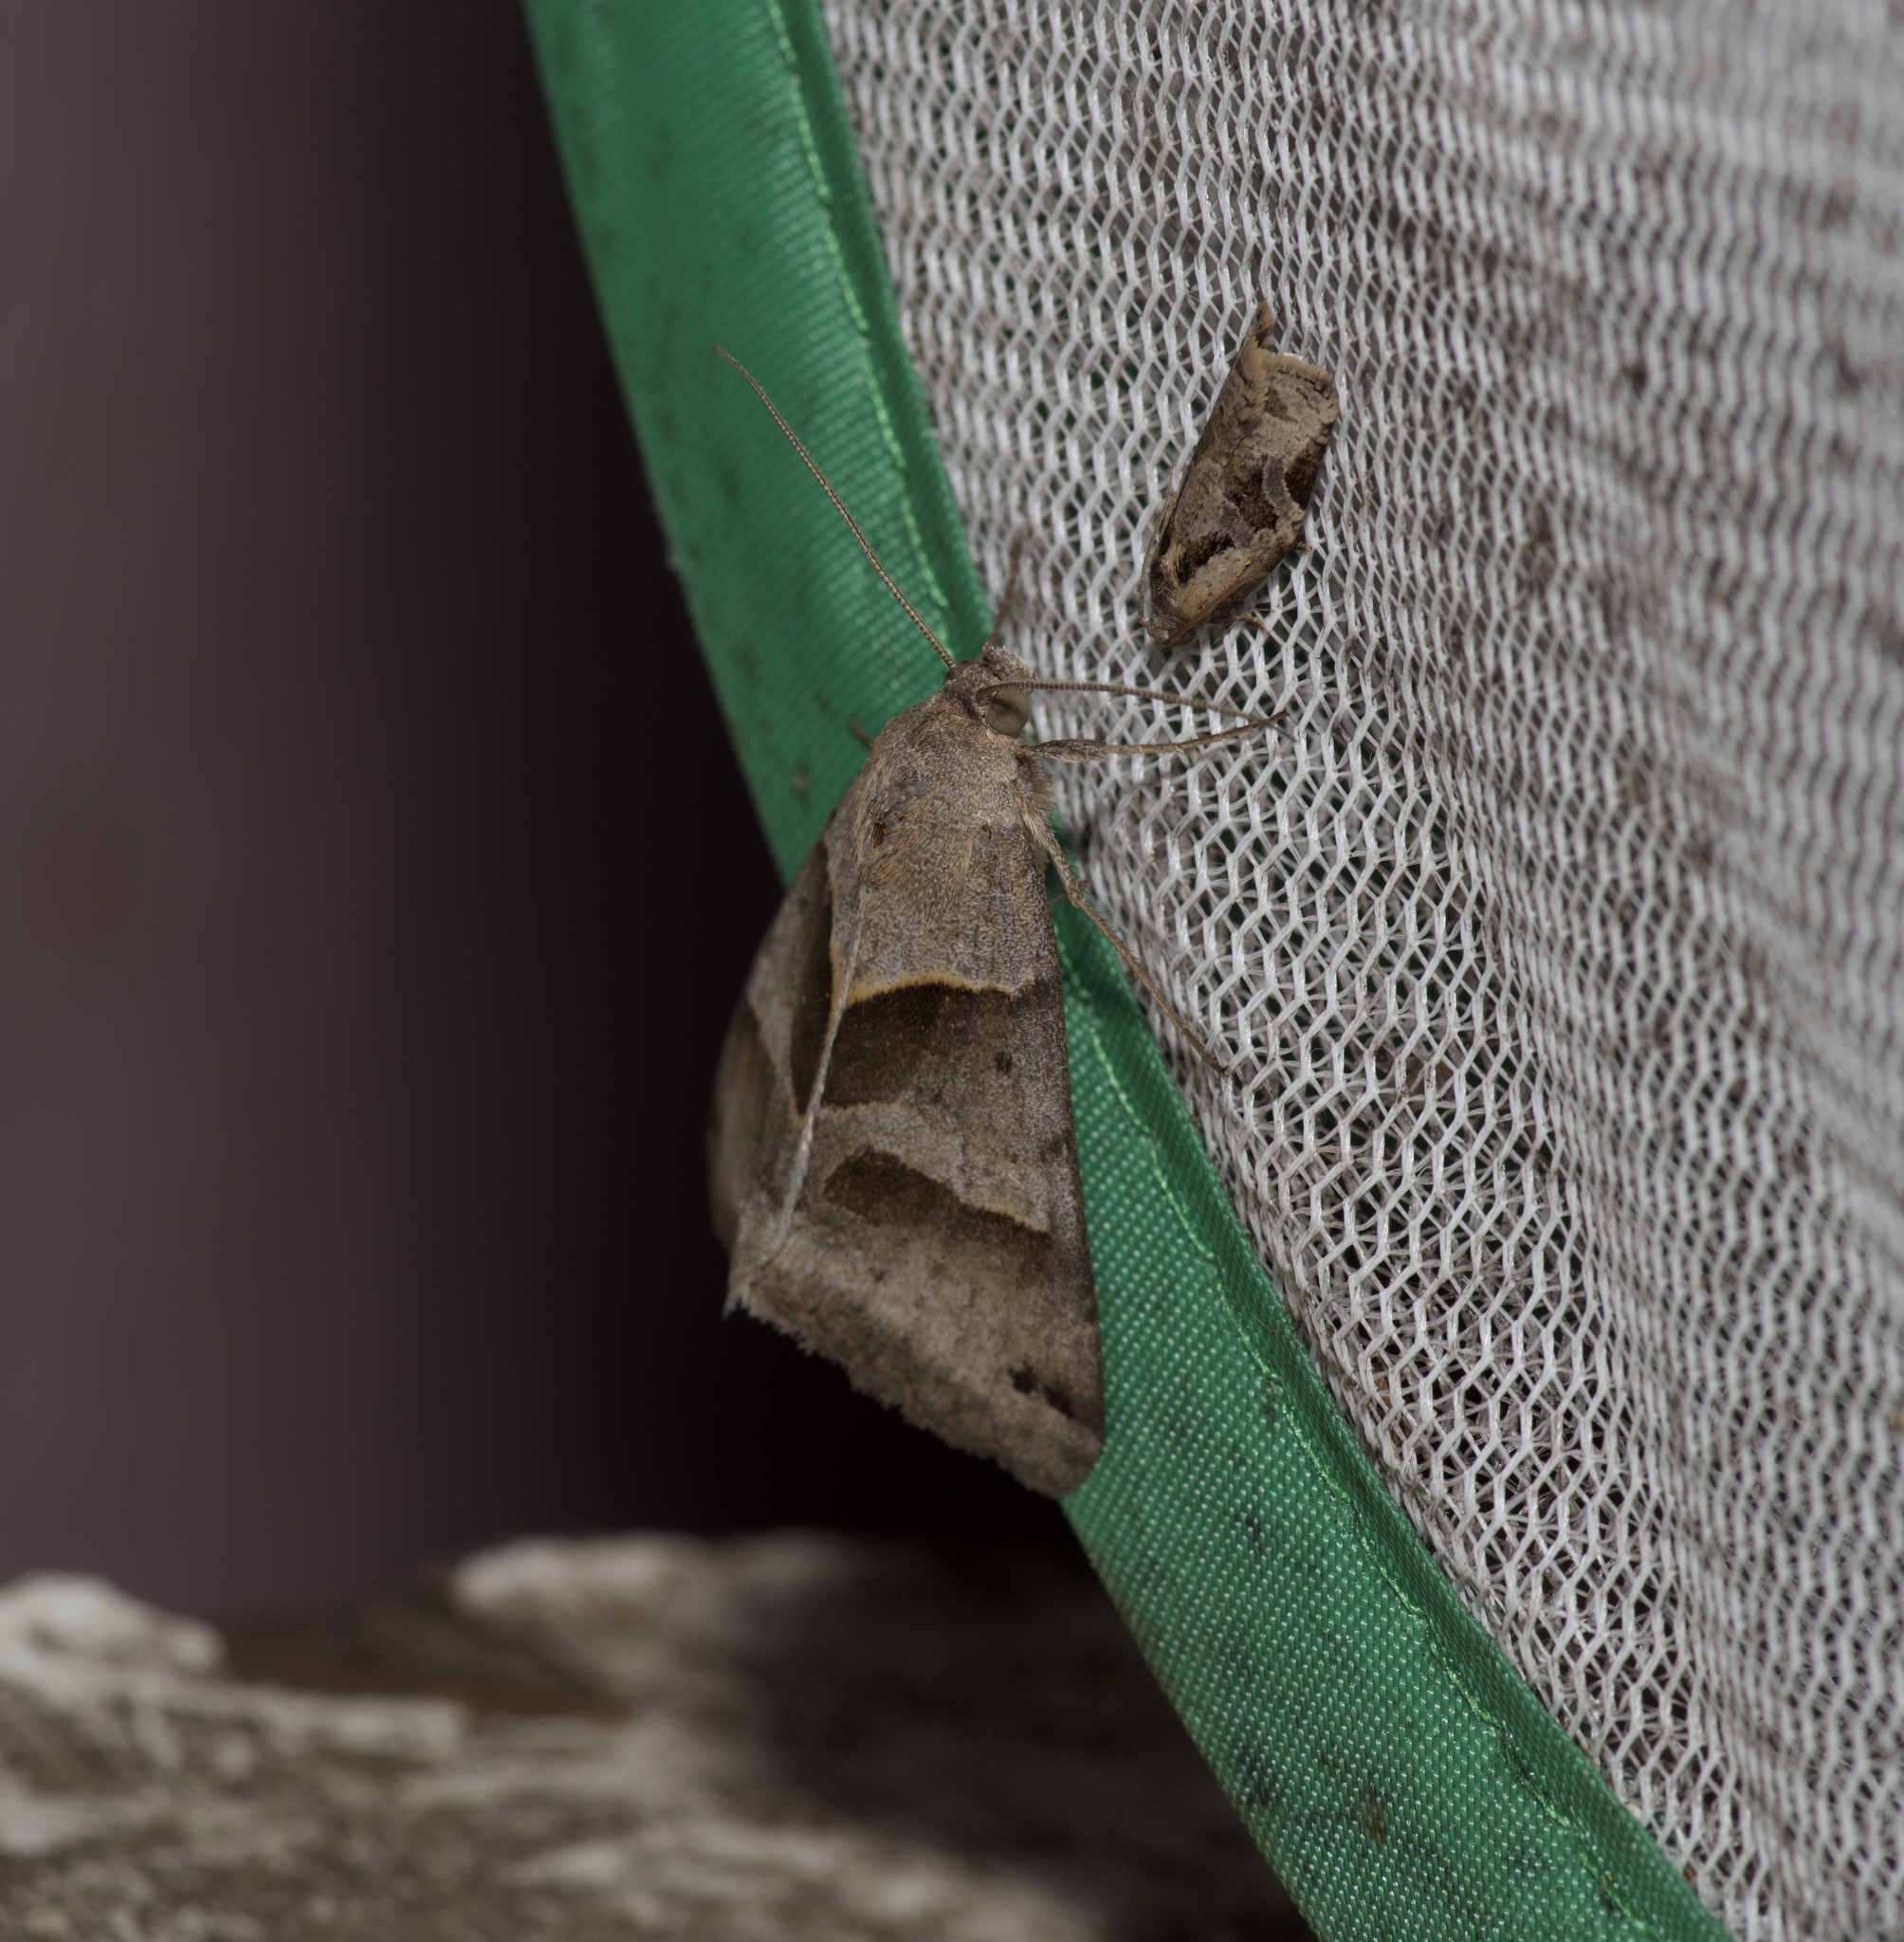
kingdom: Animalia
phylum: Arthropoda
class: Insecta
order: Lepidoptera
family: Erebidae
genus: Caenurgina
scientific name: Caenurgina erechtea
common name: Forage looper moth
